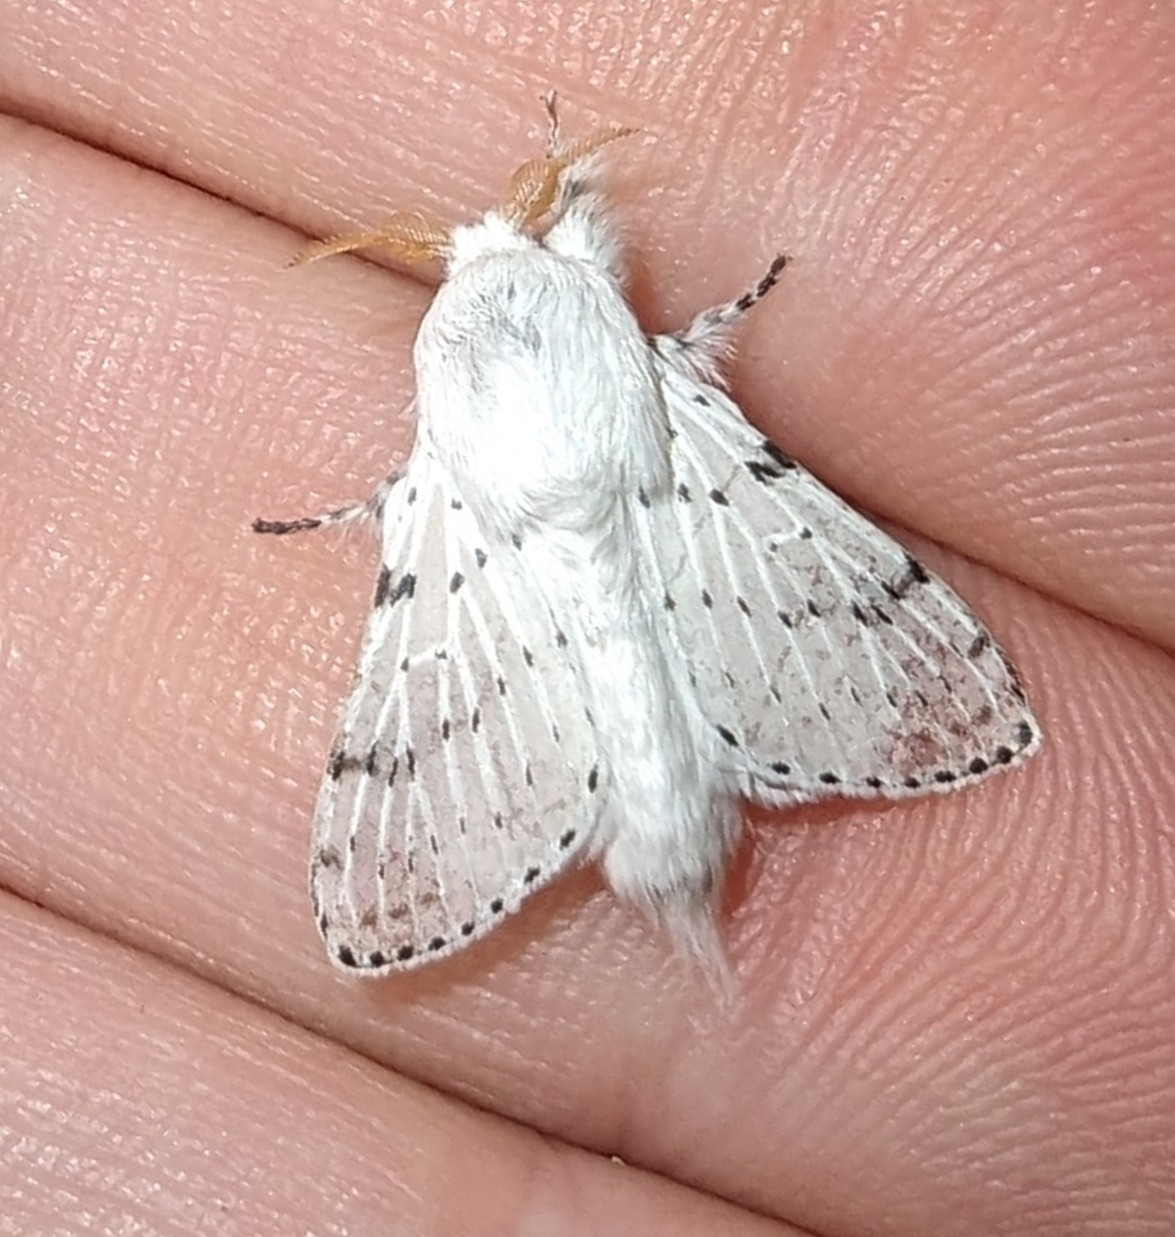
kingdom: Animalia
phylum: Arthropoda
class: Insecta
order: Lepidoptera
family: Lasiocampidae
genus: Artace
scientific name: Artace cribrarius
